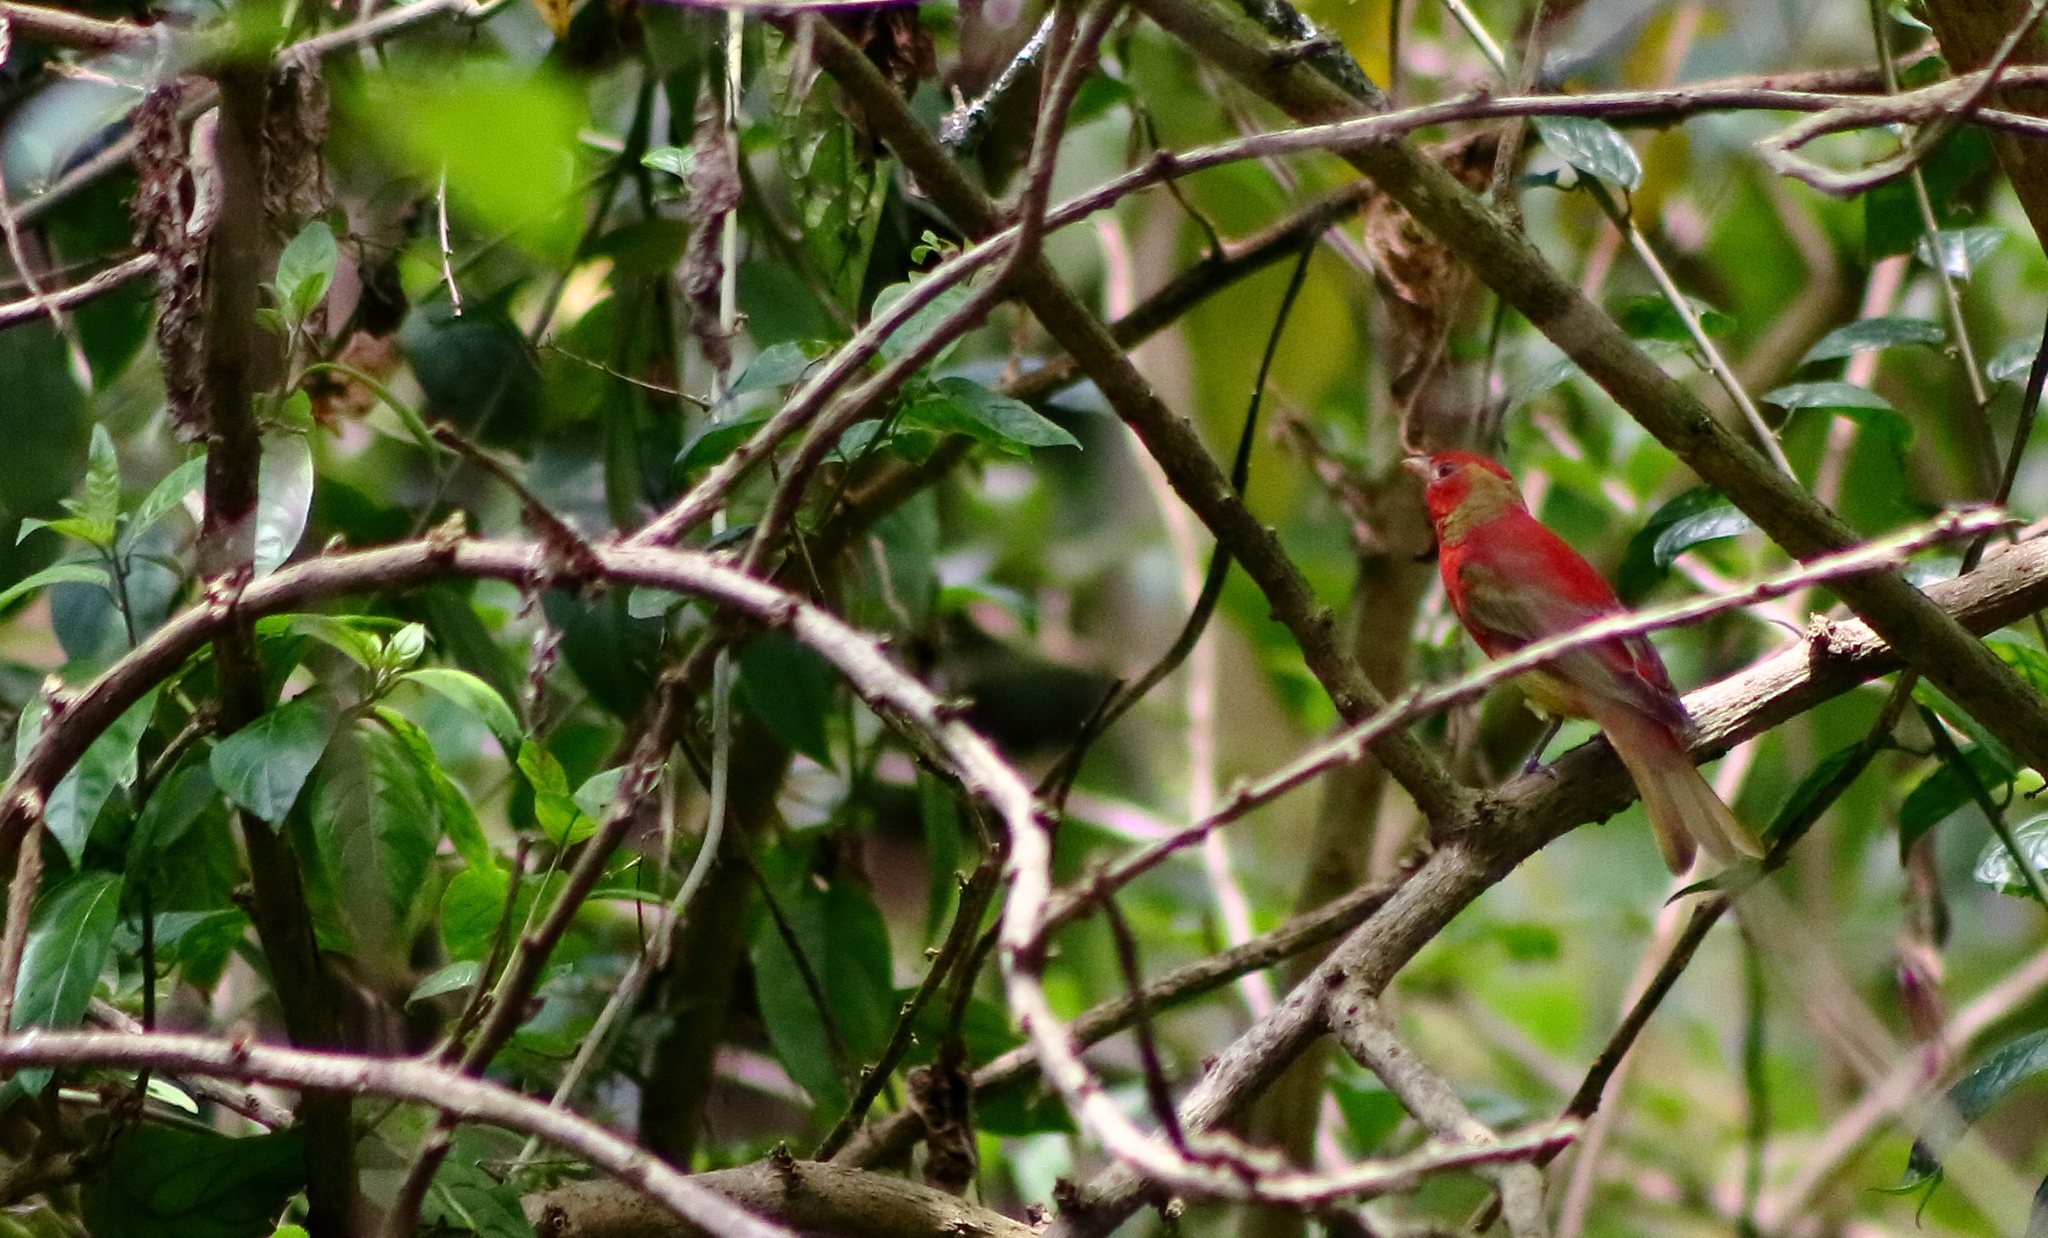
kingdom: Animalia
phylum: Chordata
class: Aves
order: Passeriformes
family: Cardinalidae
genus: Piranga
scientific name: Piranga rubra
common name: Summer tanager
